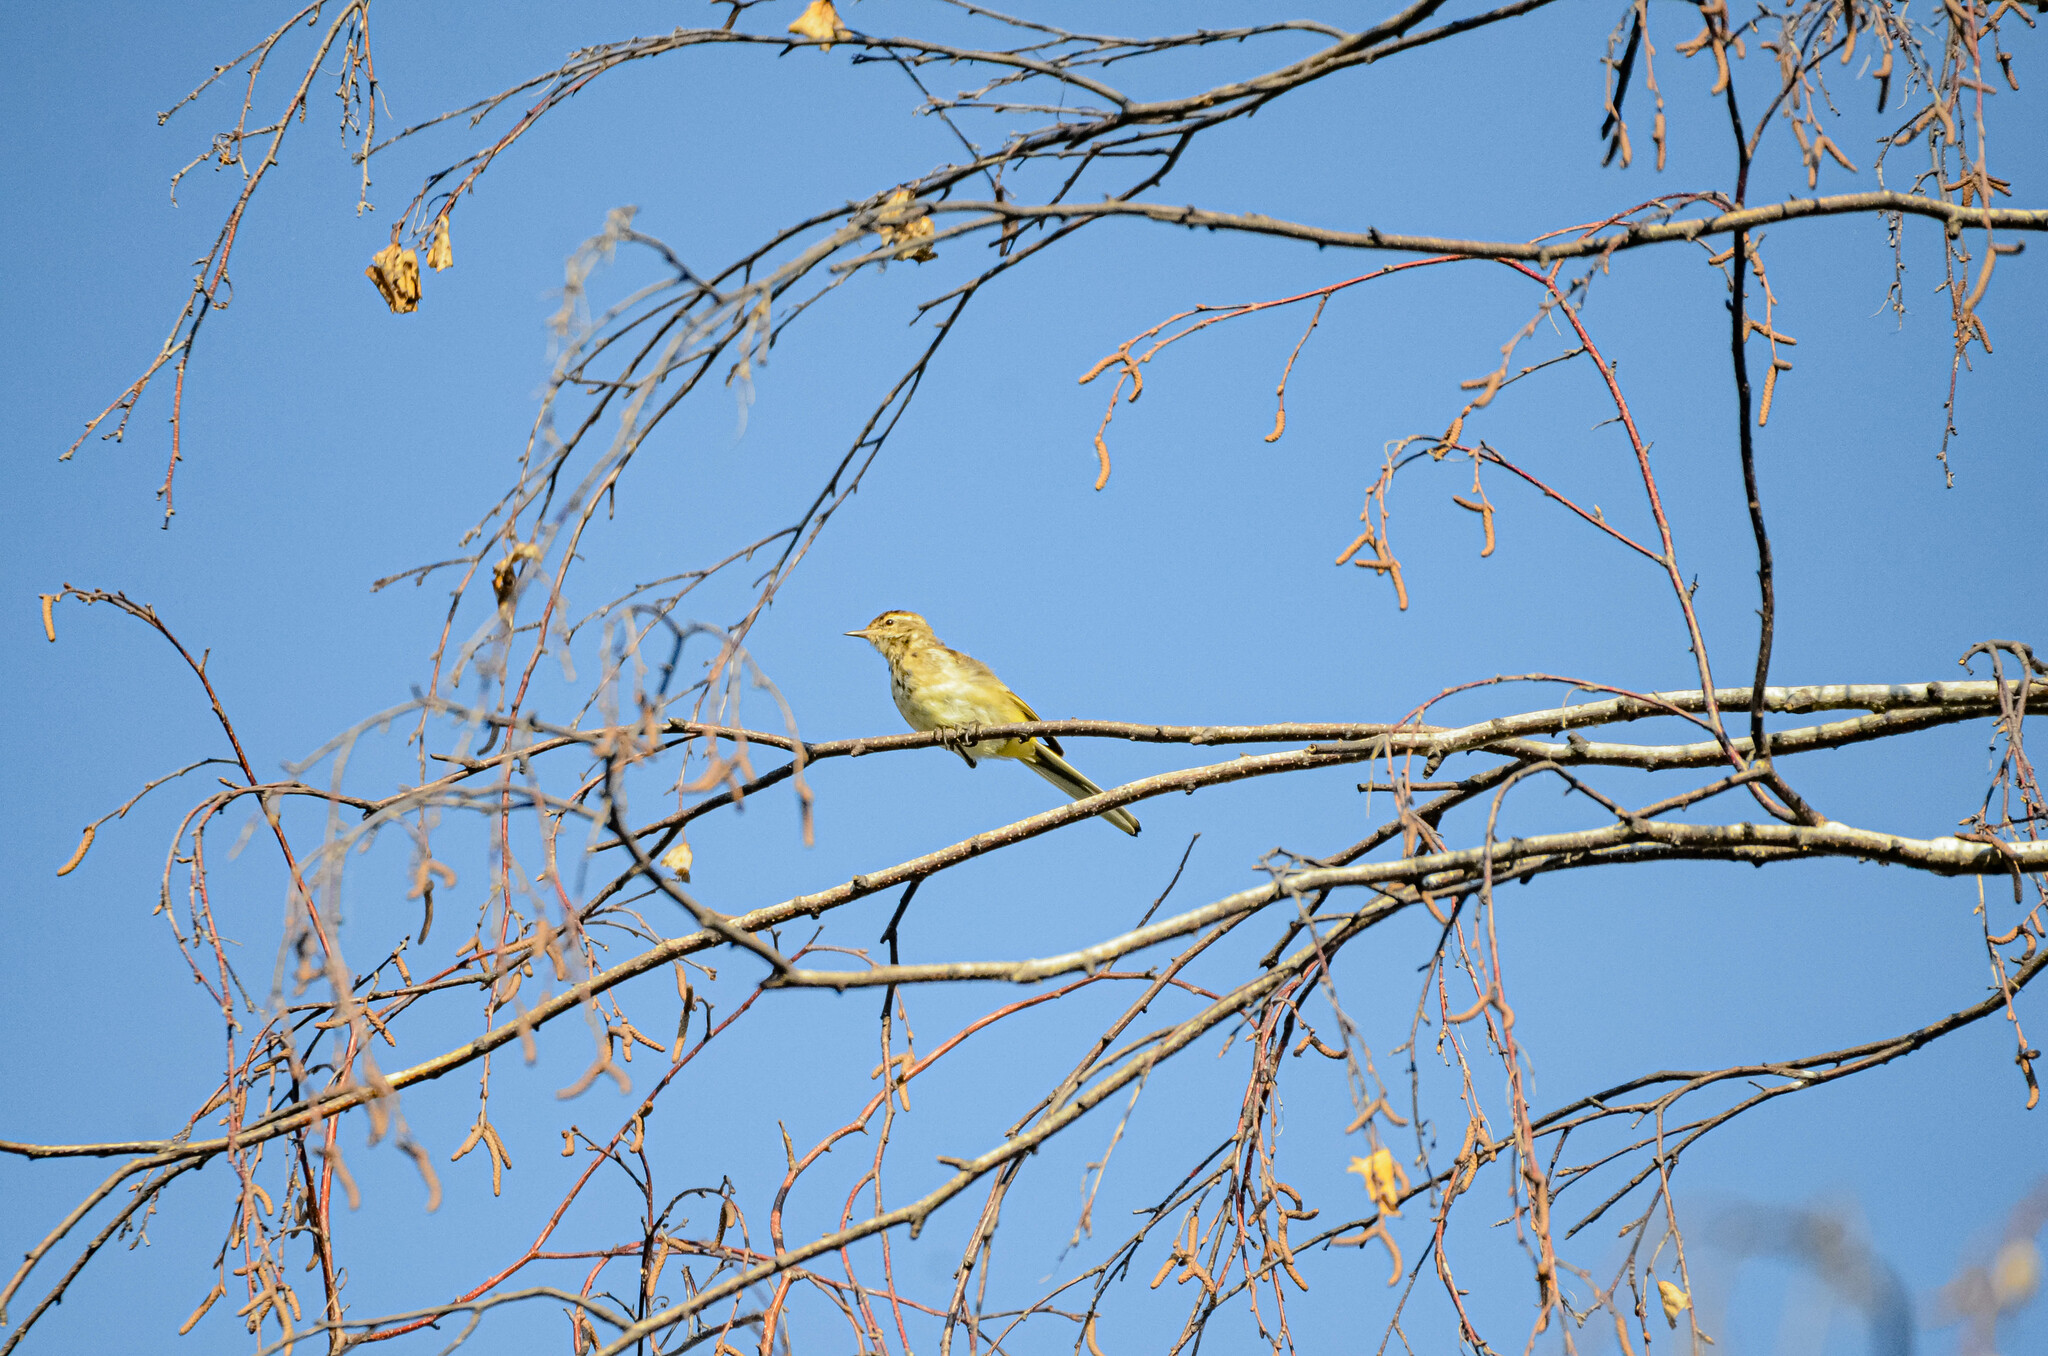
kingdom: Animalia
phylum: Chordata
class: Aves
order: Passeriformes
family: Motacillidae
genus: Motacilla
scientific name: Motacilla flava
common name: Western yellow wagtail
